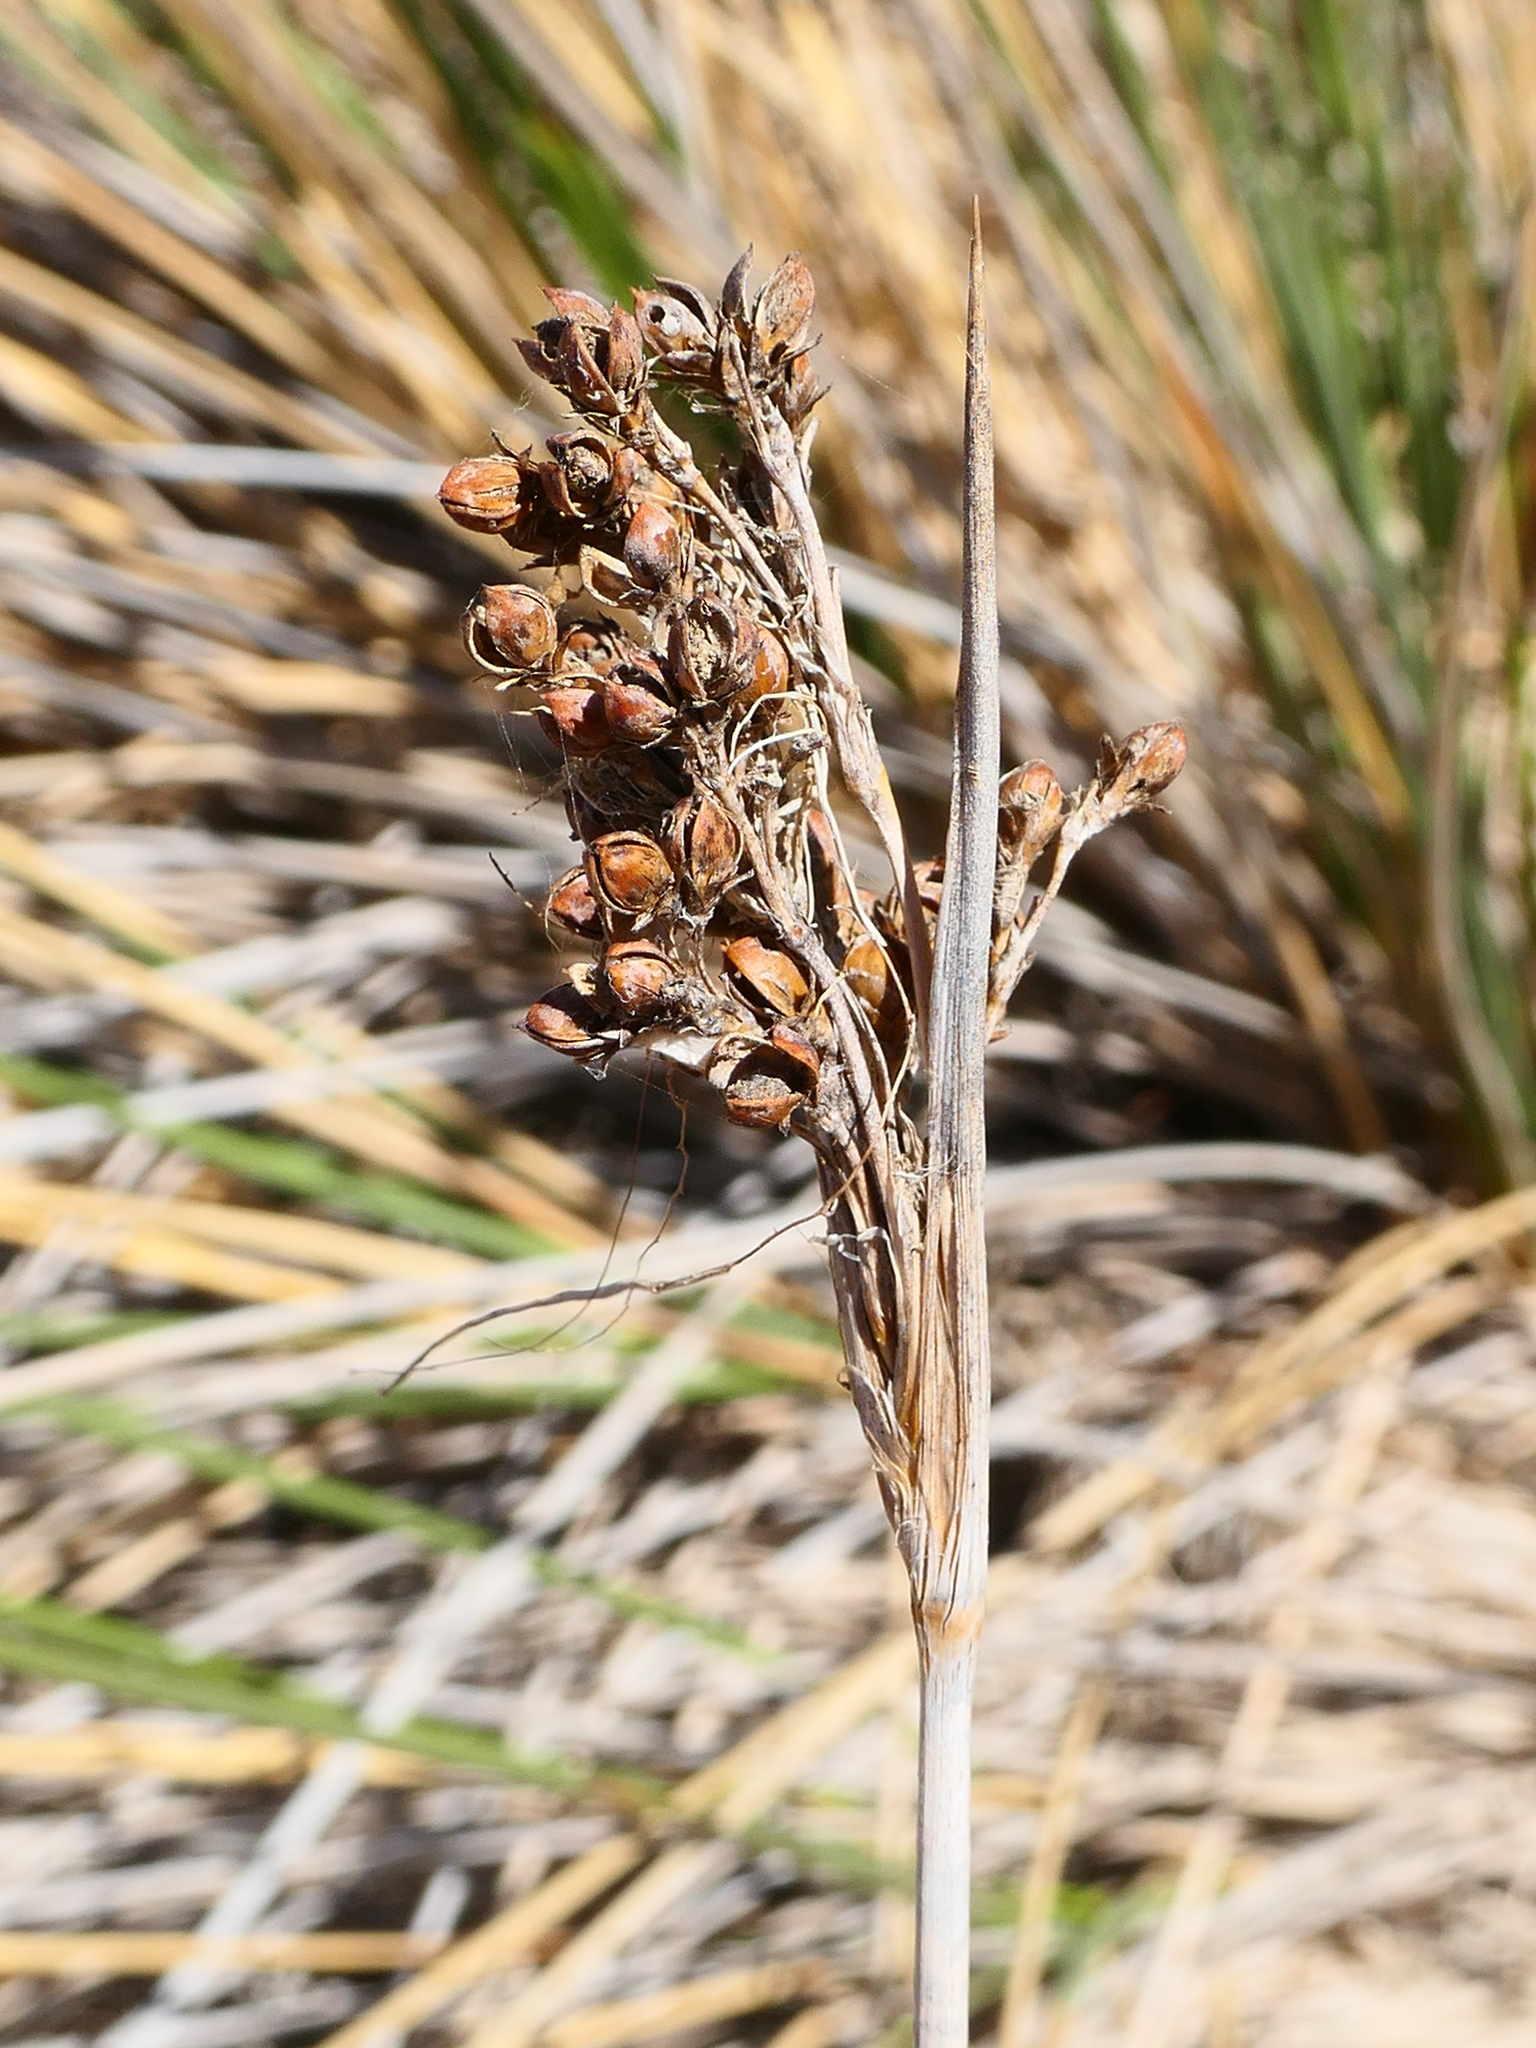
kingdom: Plantae
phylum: Tracheophyta
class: Liliopsida
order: Poales
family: Juncaceae
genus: Juncus
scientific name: Juncus acutus
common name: Sharp rush
